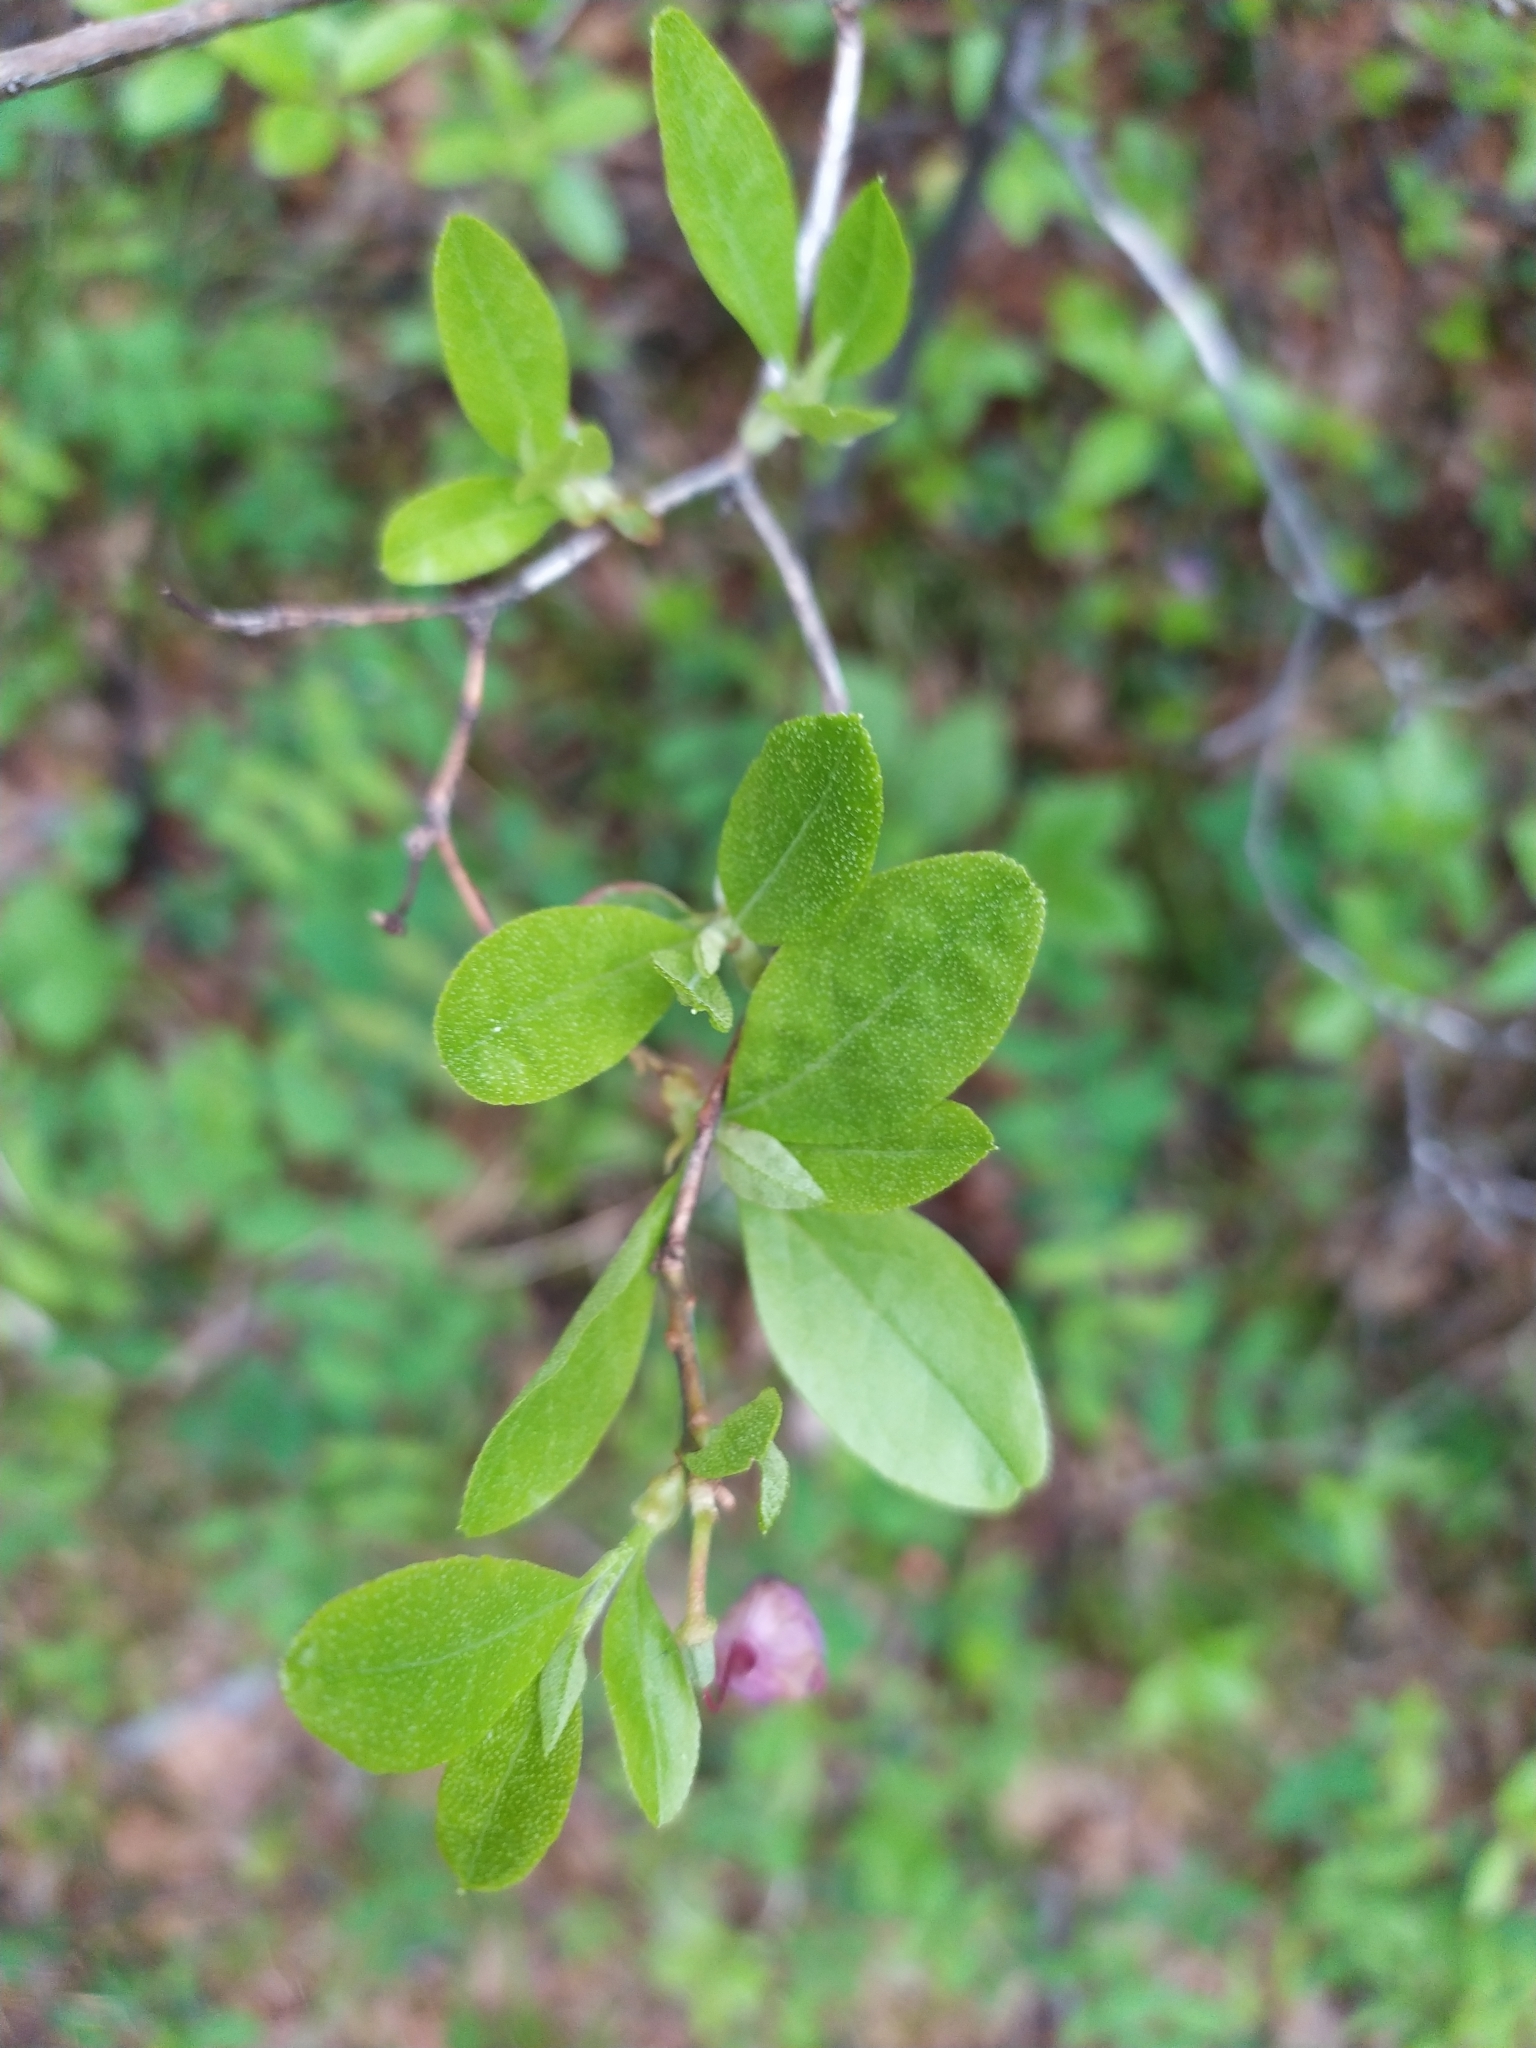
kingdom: Plantae
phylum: Tracheophyta
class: Magnoliopsida
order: Ericales
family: Ericaceae
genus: Rhododendron
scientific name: Rhododendron dauricum
